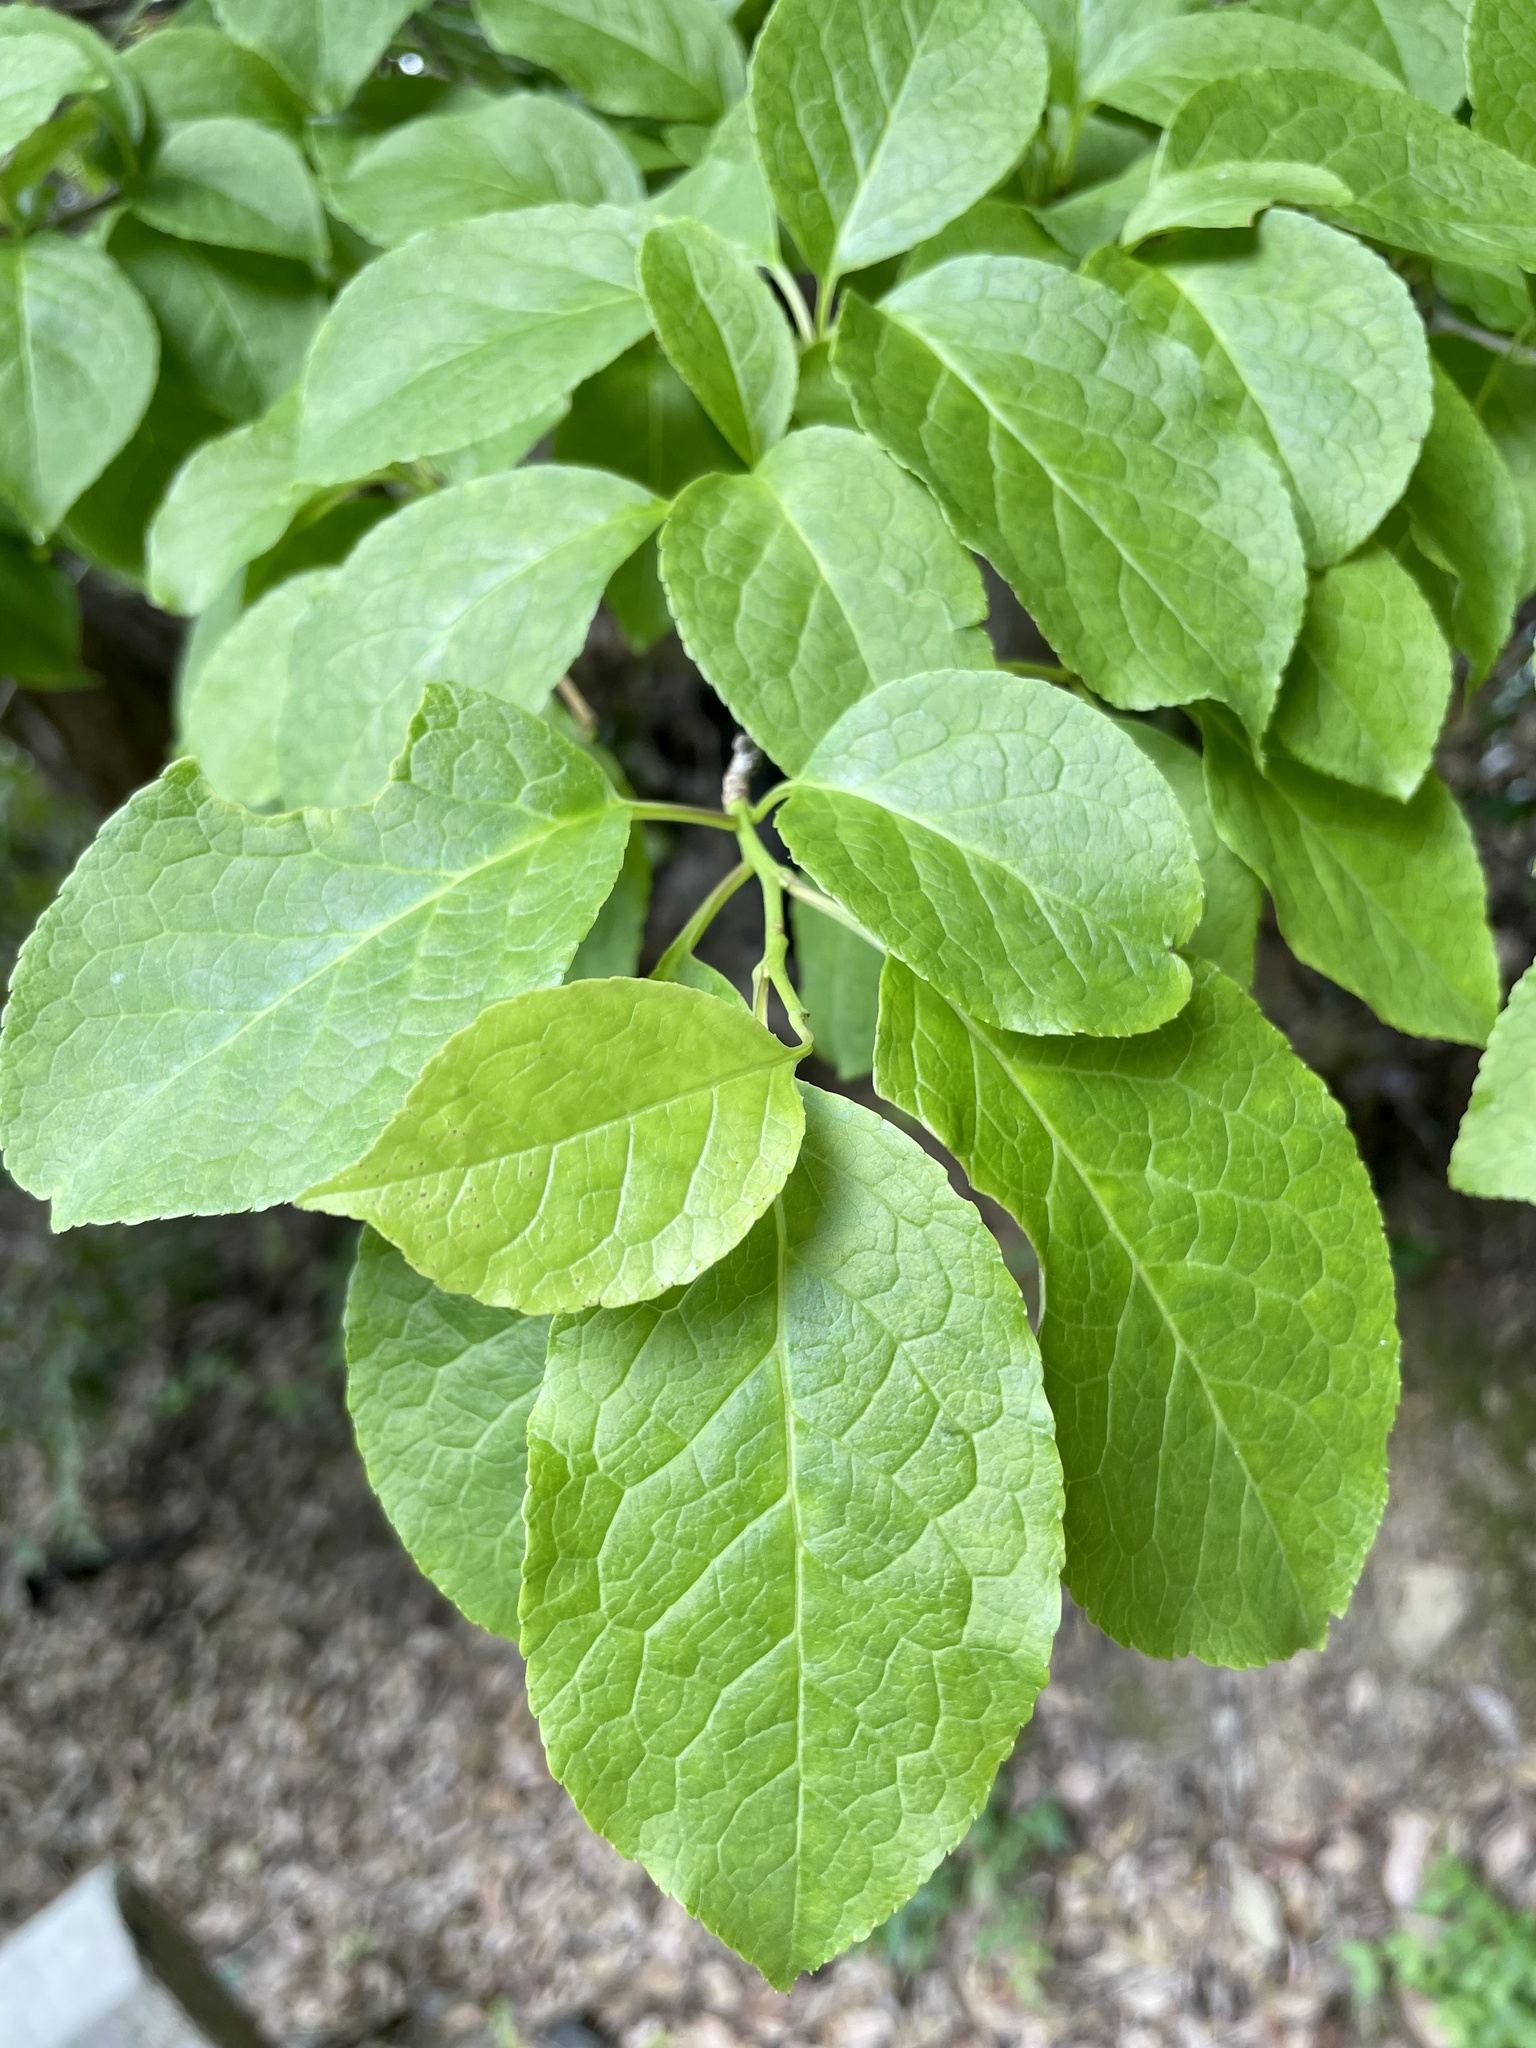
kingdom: Plantae
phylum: Tracheophyta
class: Magnoliopsida
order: Aquifoliales
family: Aquifoliaceae
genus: Ilex
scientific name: Ilex macropoda
